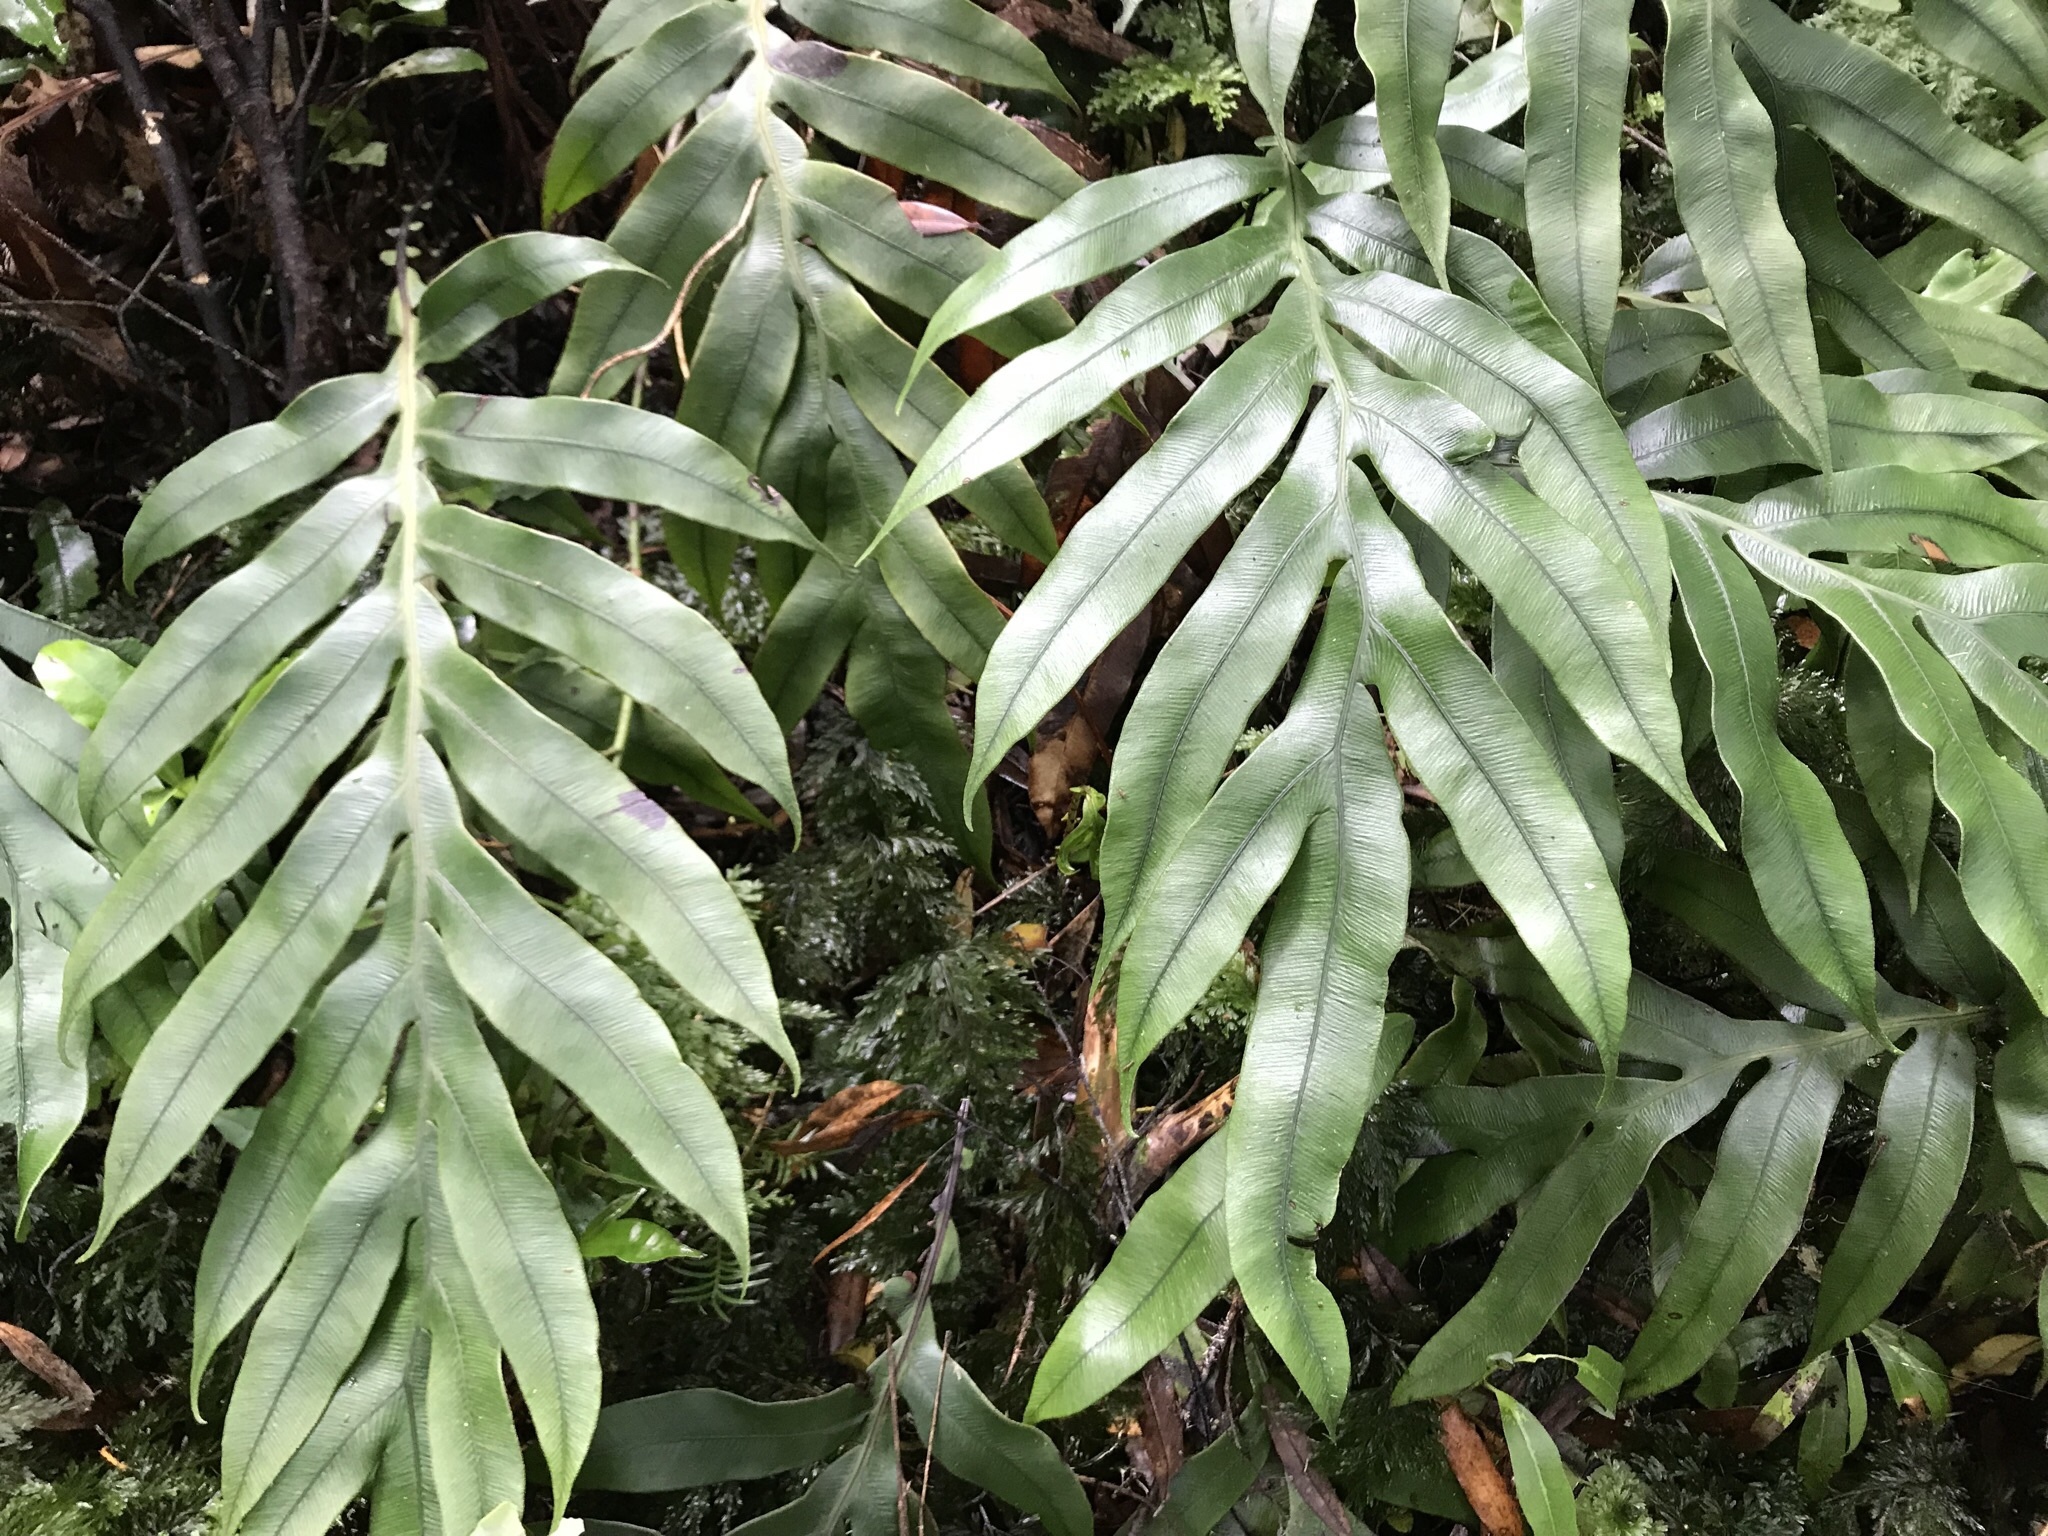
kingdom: Plantae
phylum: Tracheophyta
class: Polypodiopsida
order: Polypodiales
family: Blechnaceae
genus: Austroblechnum
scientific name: Austroblechnum colensoi
